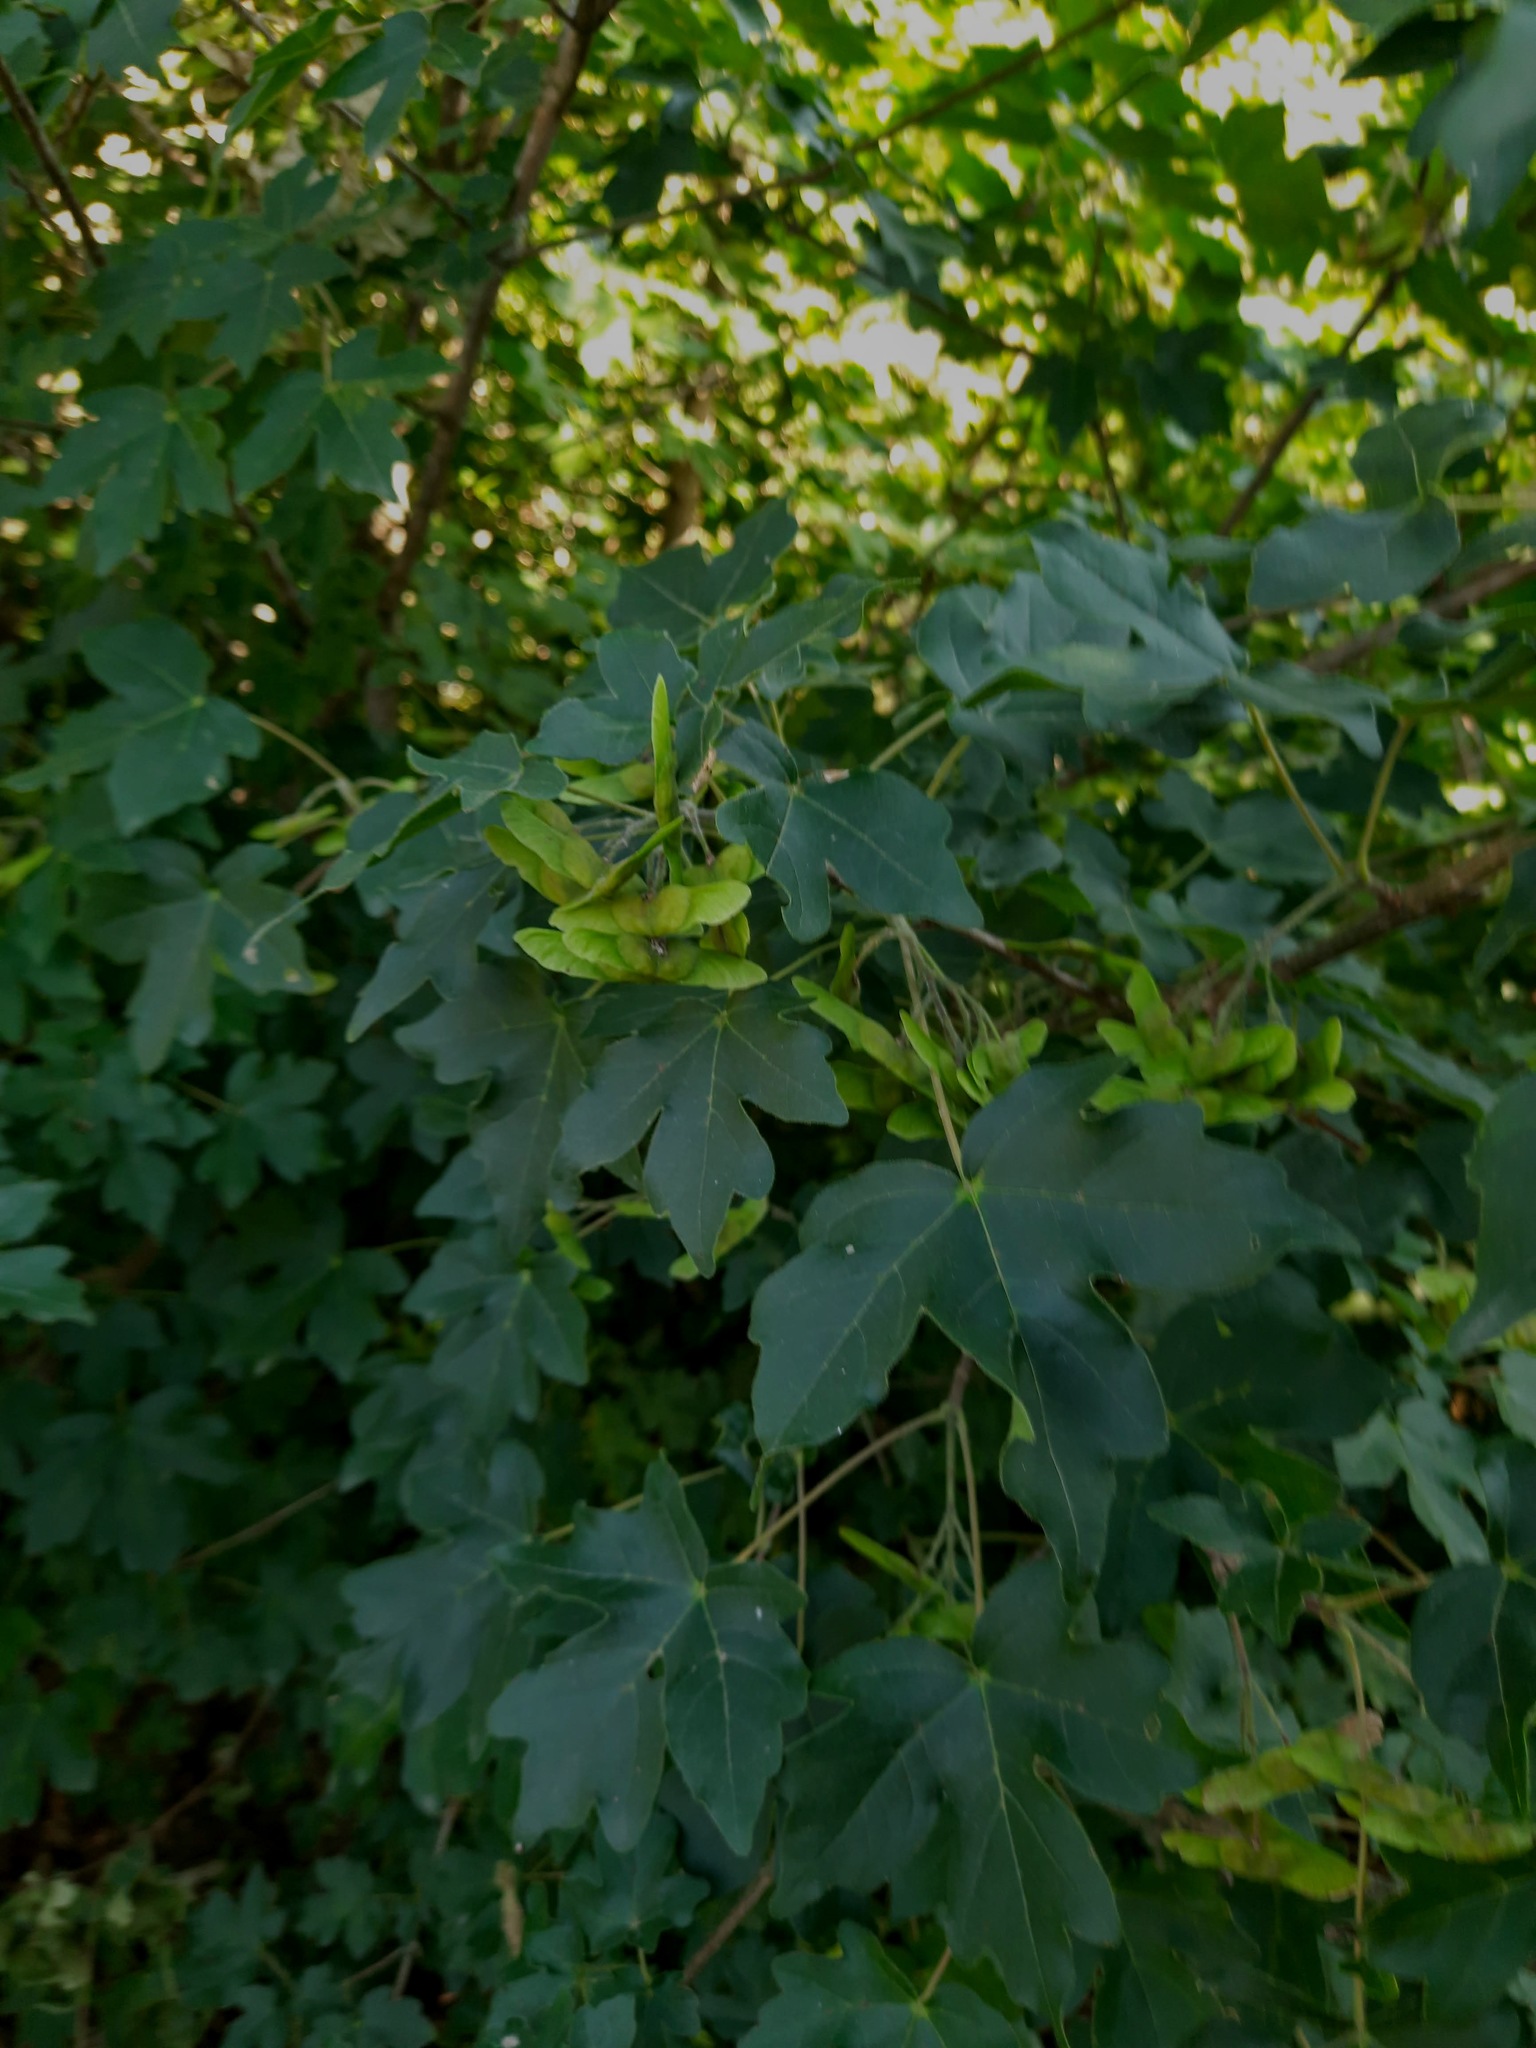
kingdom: Plantae
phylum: Tracheophyta
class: Magnoliopsida
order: Sapindales
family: Sapindaceae
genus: Acer
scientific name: Acer campestre
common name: Field maple
